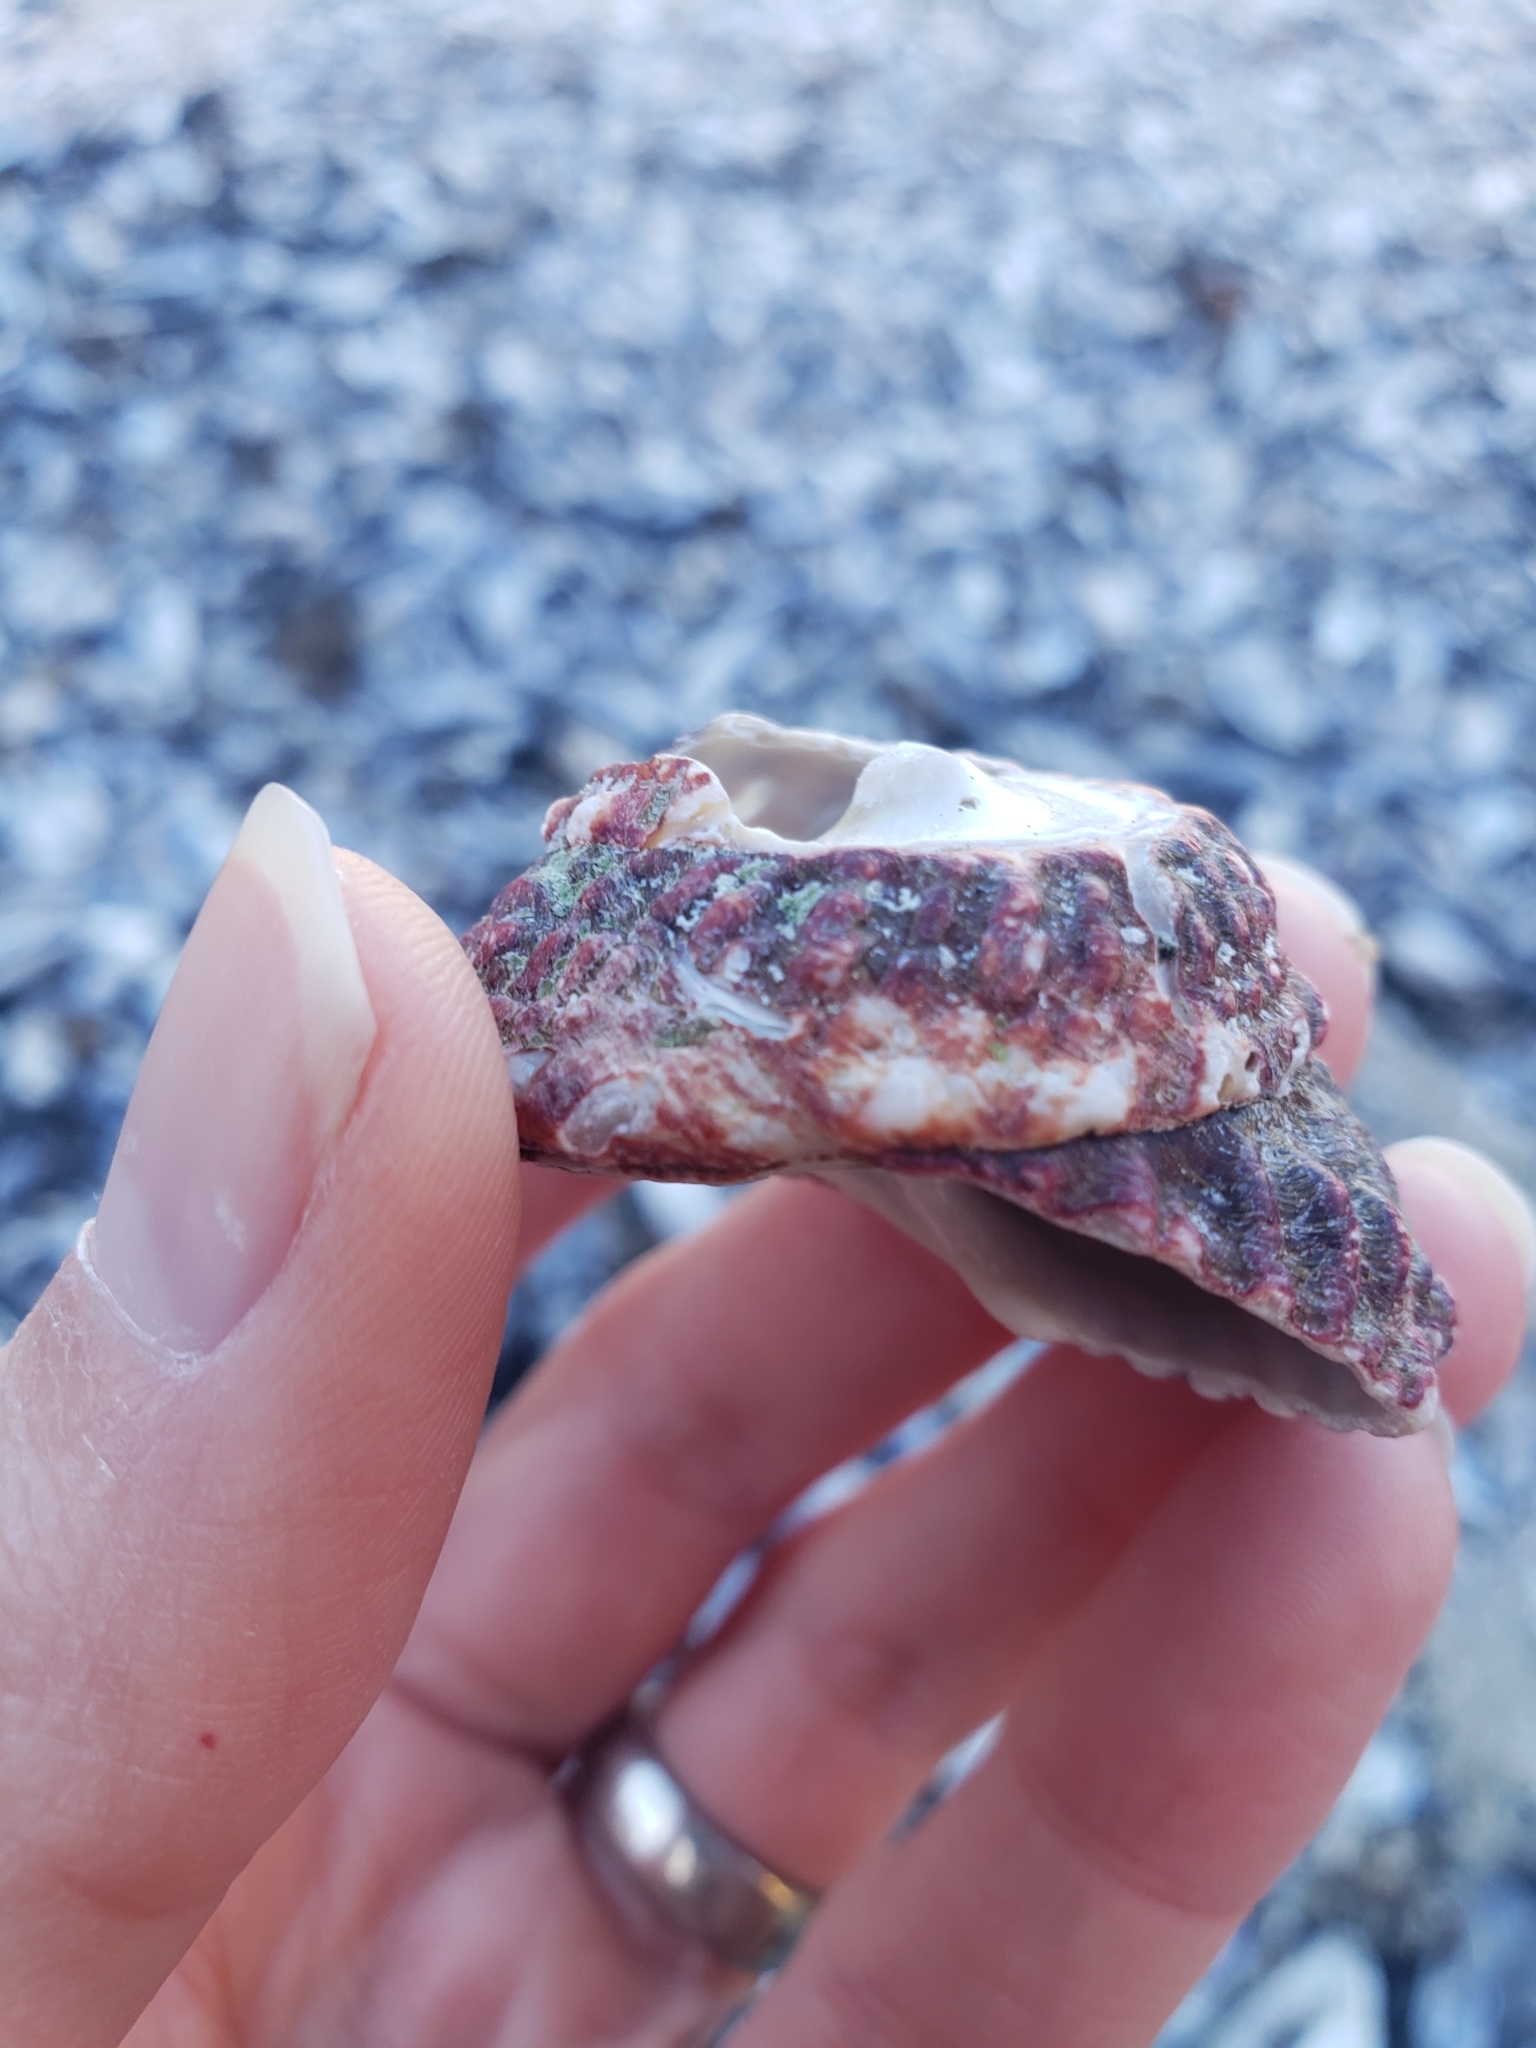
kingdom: Animalia
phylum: Mollusca
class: Gastropoda
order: Trochida
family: Turbinidae
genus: Pomaulax
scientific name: Pomaulax gibberosus
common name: Red turban
